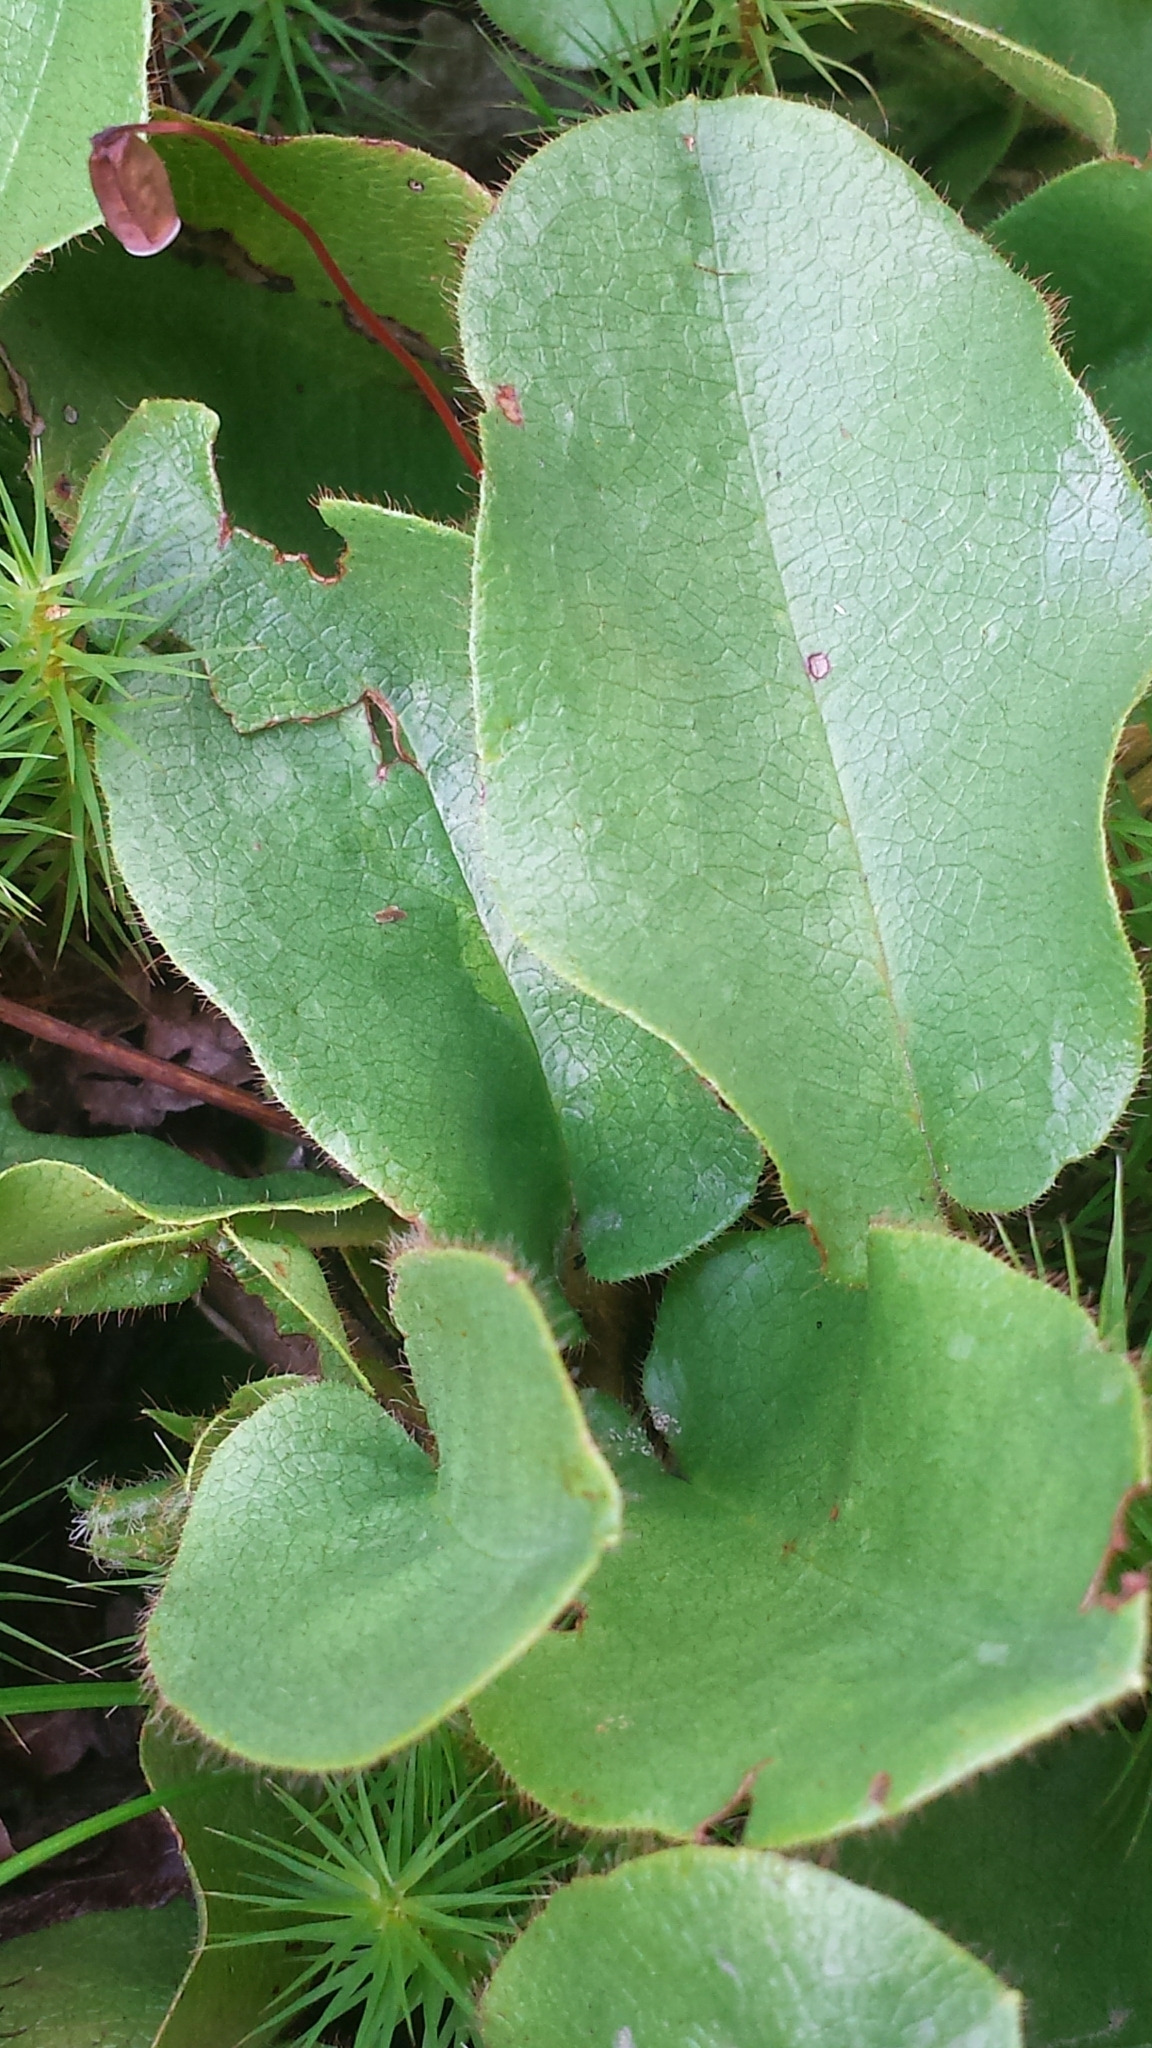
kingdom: Plantae
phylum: Tracheophyta
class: Magnoliopsida
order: Ericales
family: Ericaceae
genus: Epigaea
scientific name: Epigaea repens
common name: Gravelroot
